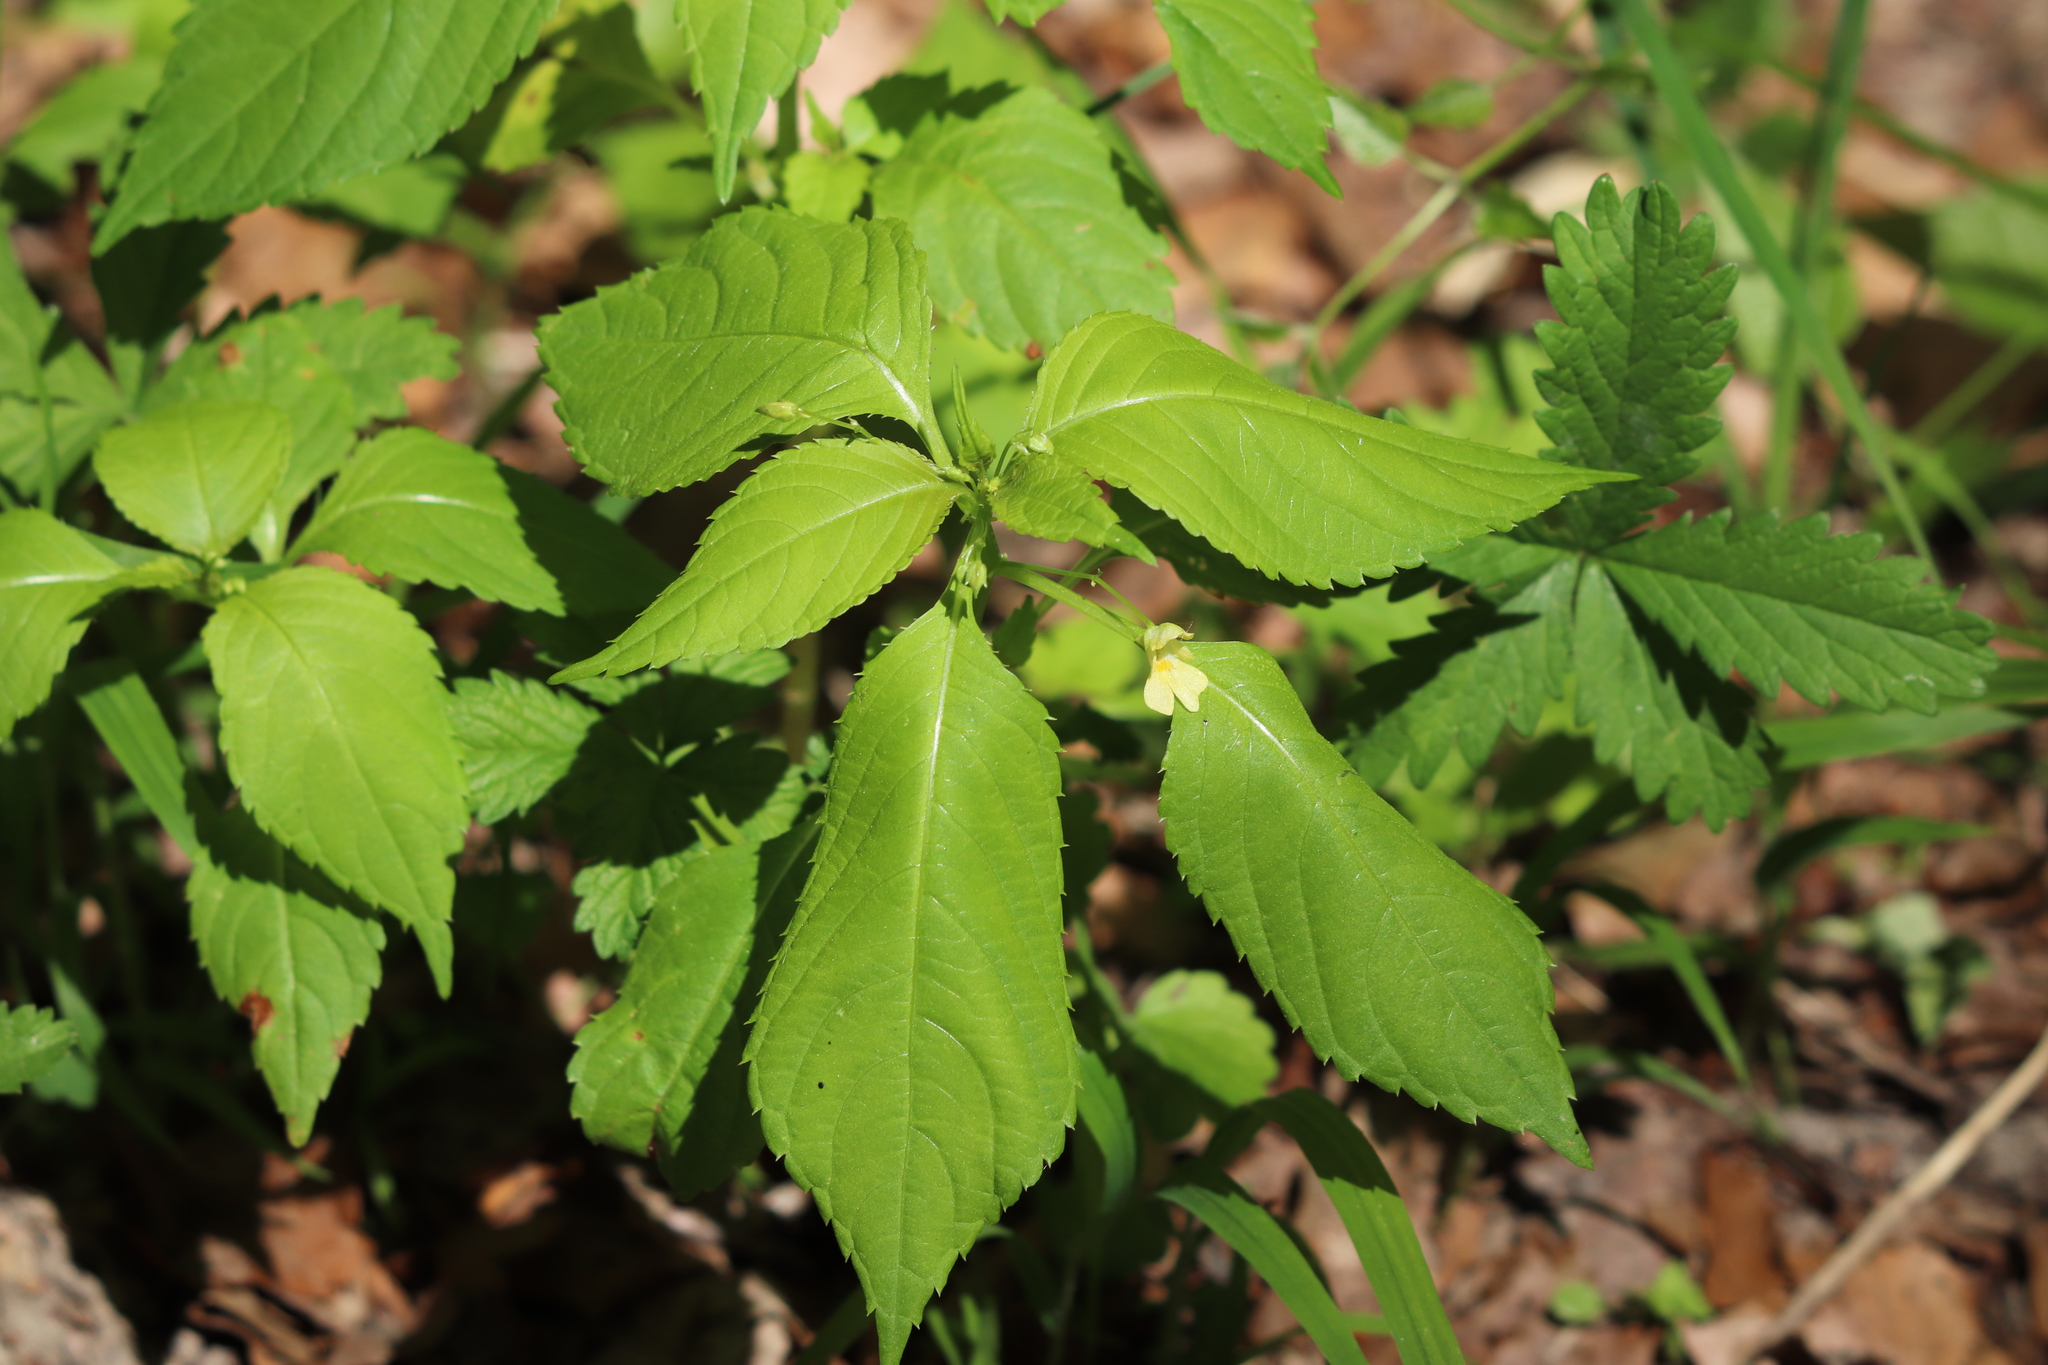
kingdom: Plantae
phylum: Tracheophyta
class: Magnoliopsida
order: Ericales
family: Balsaminaceae
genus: Impatiens
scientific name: Impatiens parviflora
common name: Small balsam
